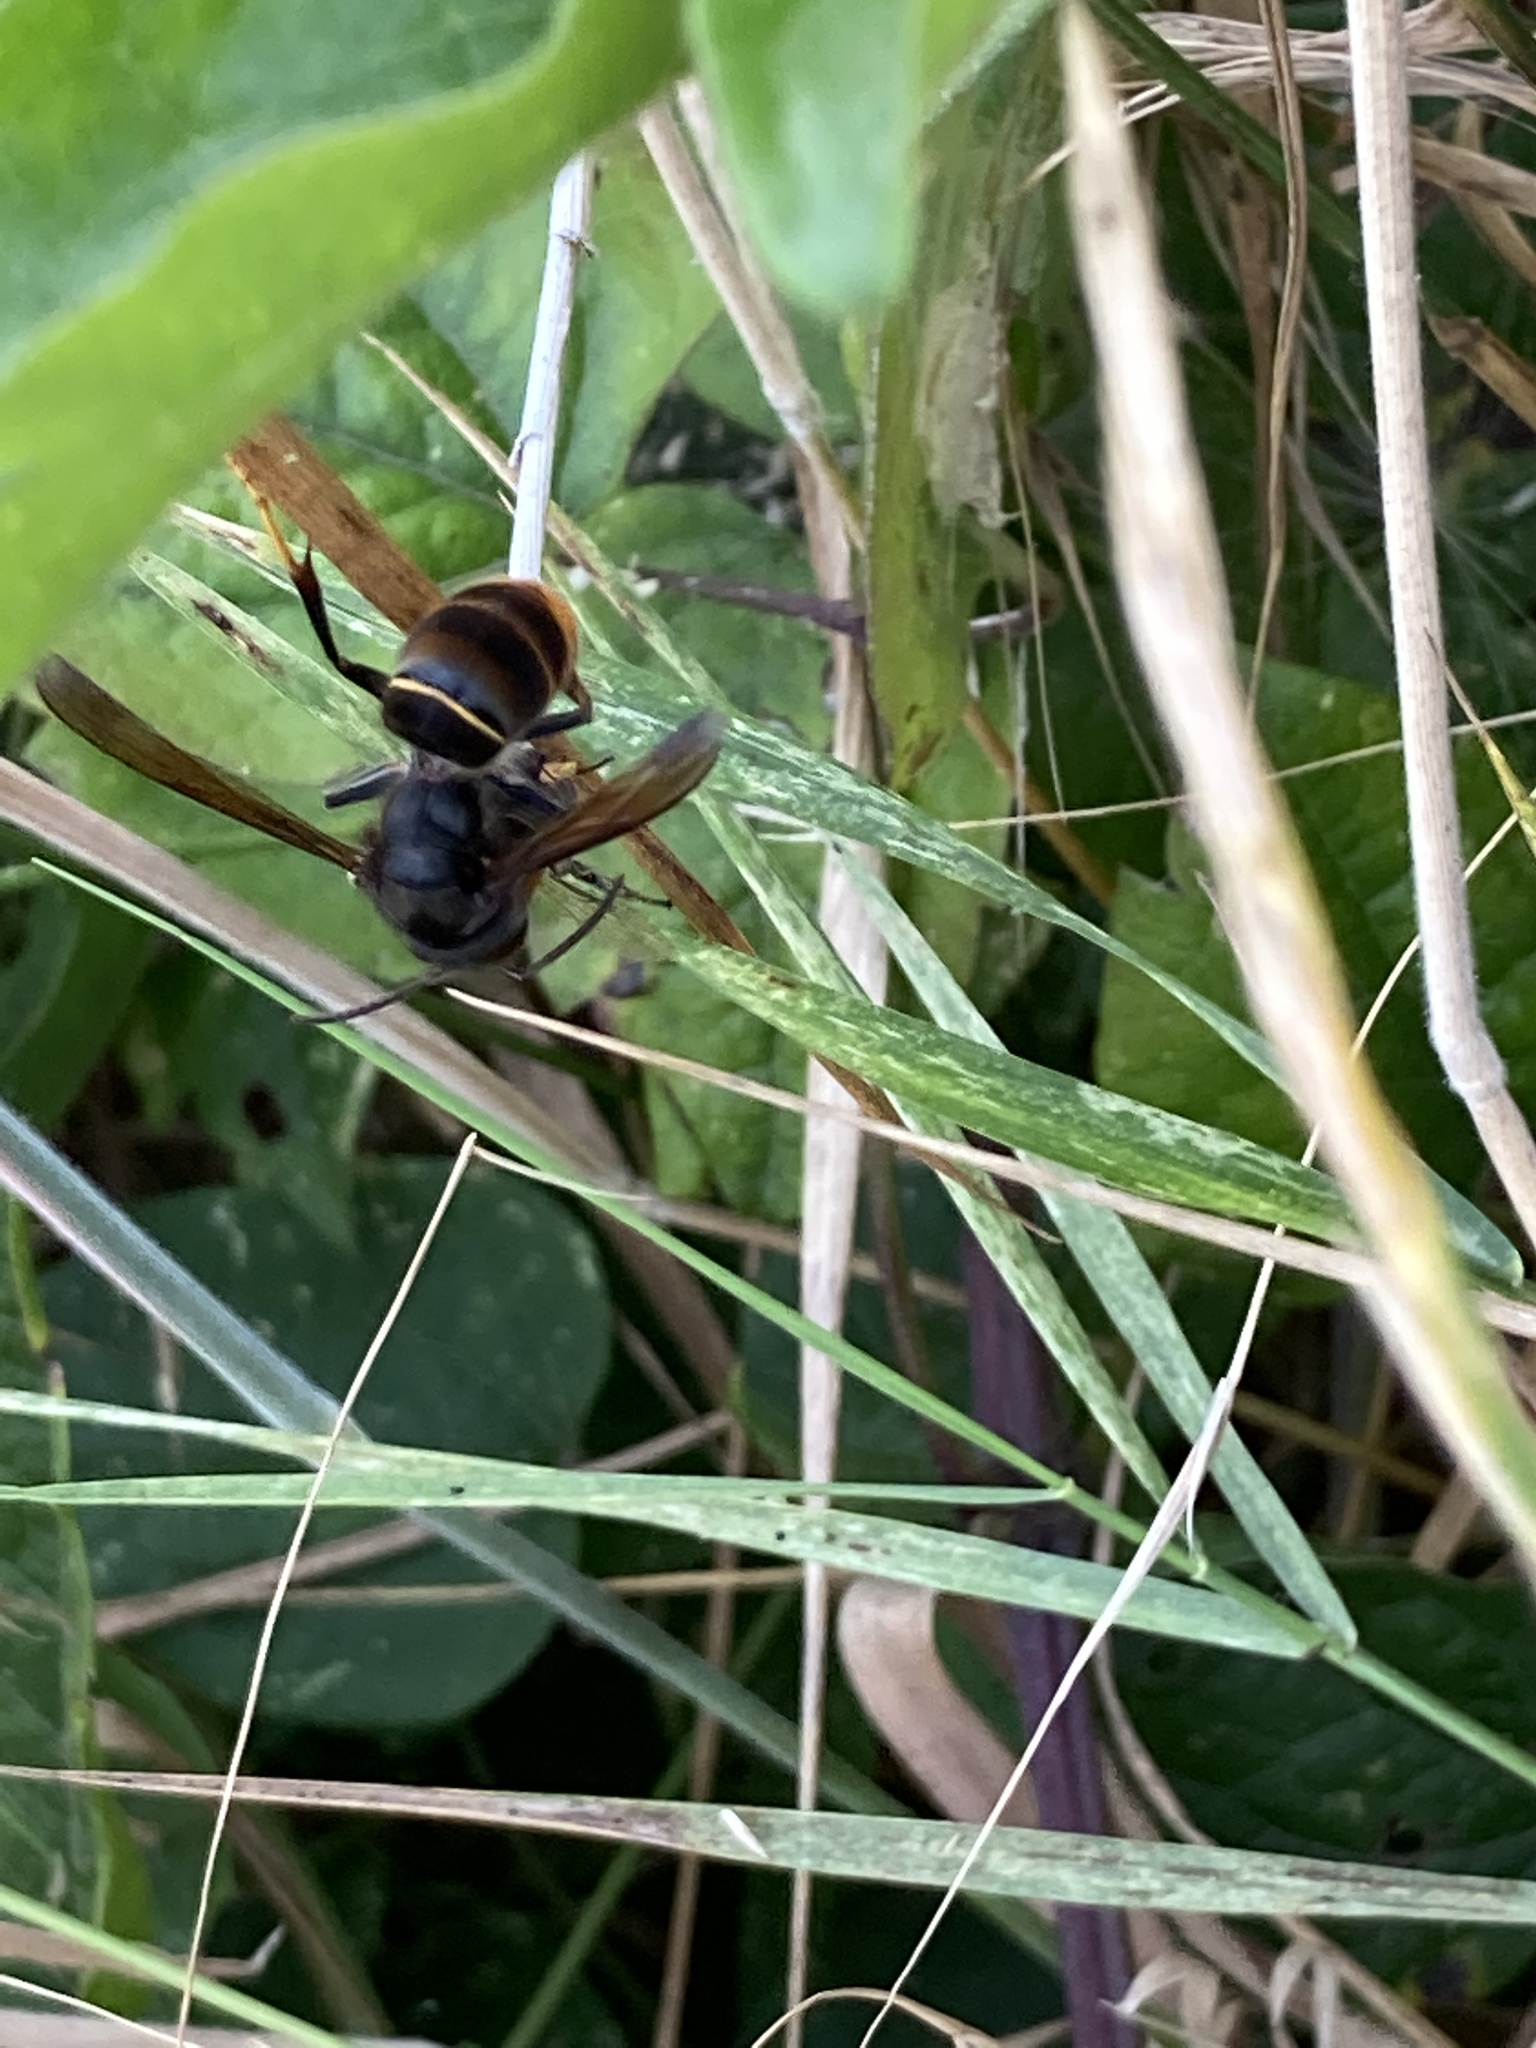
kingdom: Animalia
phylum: Arthropoda
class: Insecta
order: Hymenoptera
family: Vespidae
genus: Vespa
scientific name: Vespa velutina
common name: Asian hornet
